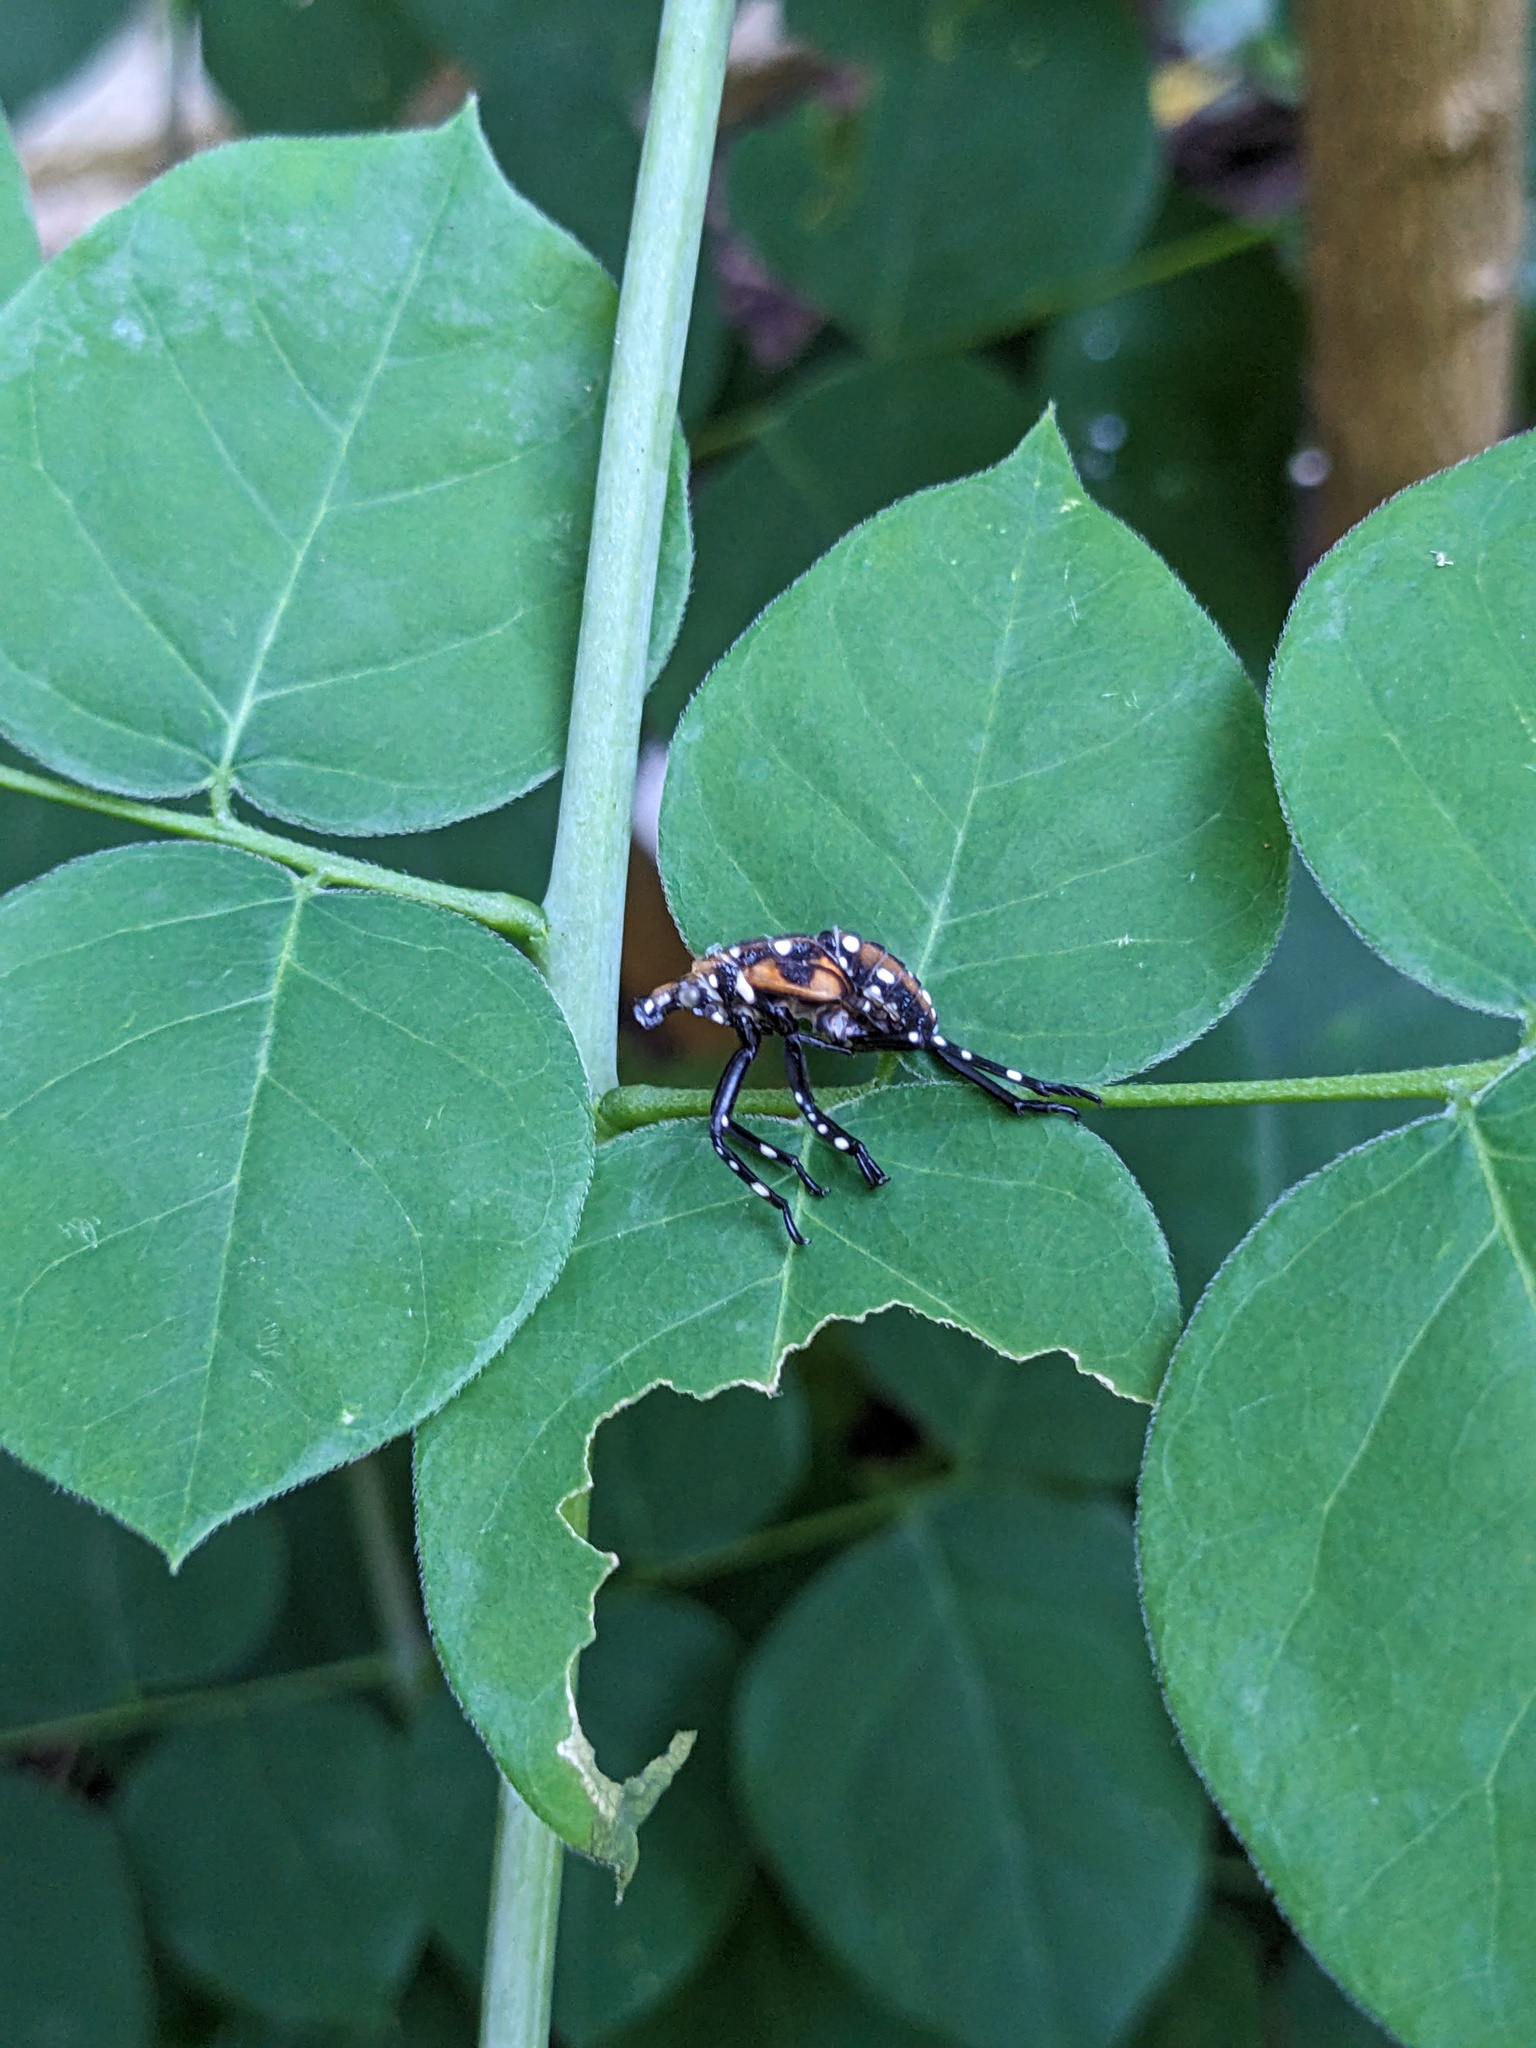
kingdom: Animalia
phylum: Arthropoda
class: Insecta
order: Hemiptera
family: Fulgoridae
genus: Lycorma
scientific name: Lycorma delicatula
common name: Spotted lanternfly
